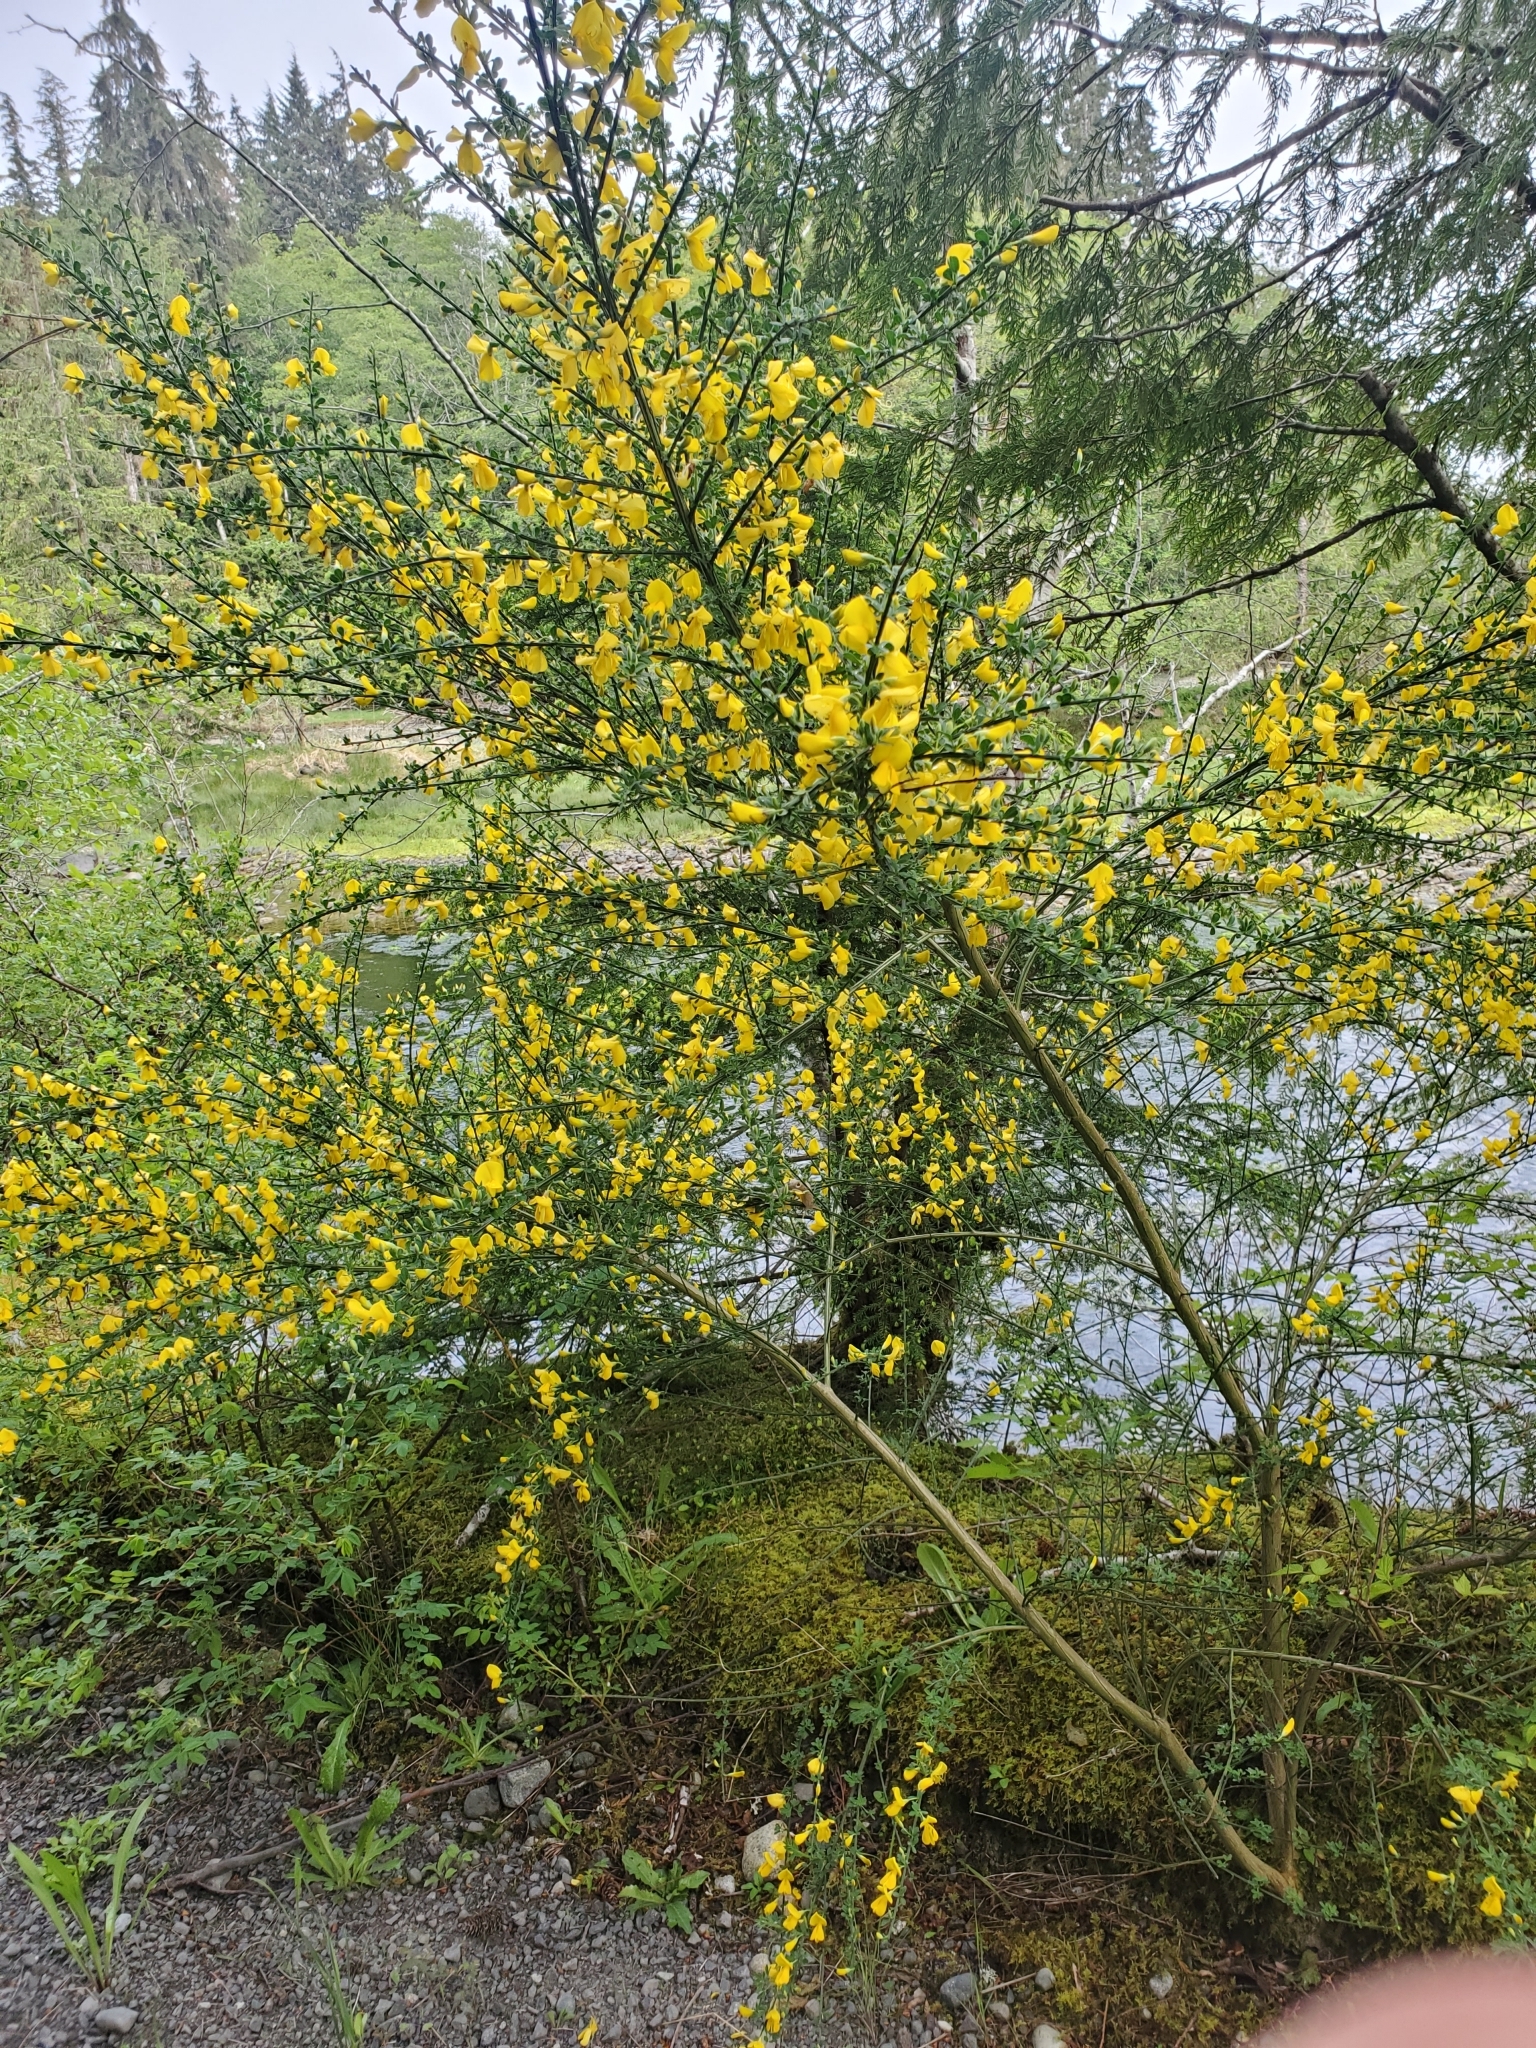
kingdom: Plantae
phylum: Tracheophyta
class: Magnoliopsida
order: Fabales
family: Fabaceae
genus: Cytisus
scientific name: Cytisus scoparius
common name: Scotch broom
